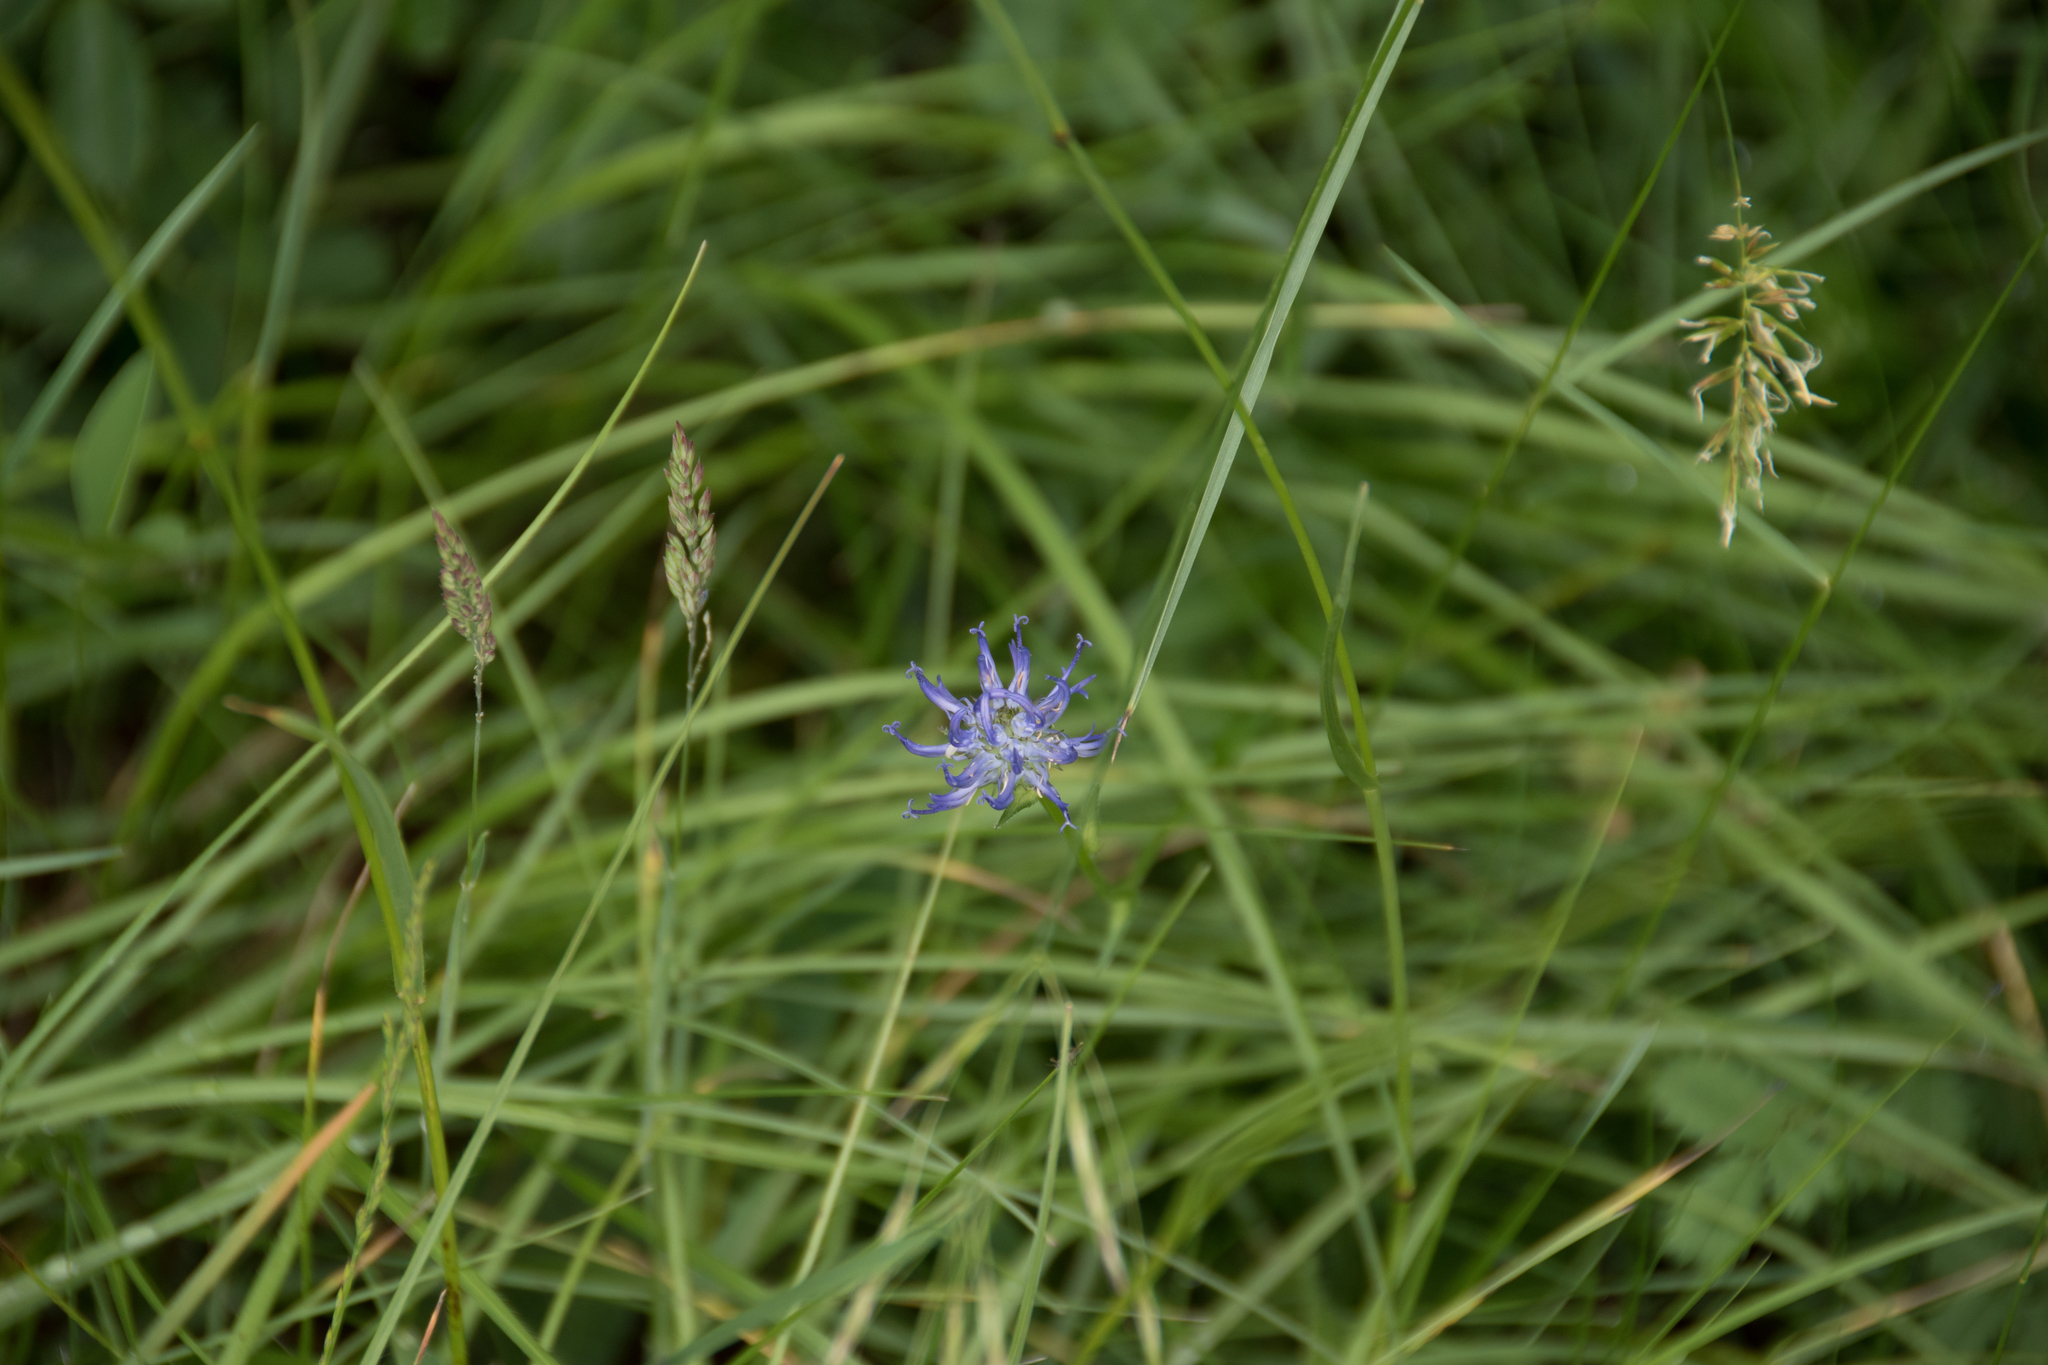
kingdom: Plantae
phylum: Tracheophyta
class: Magnoliopsida
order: Asterales
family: Campanulaceae
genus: Phyteuma
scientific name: Phyteuma orbiculare
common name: Round-headed rampion
